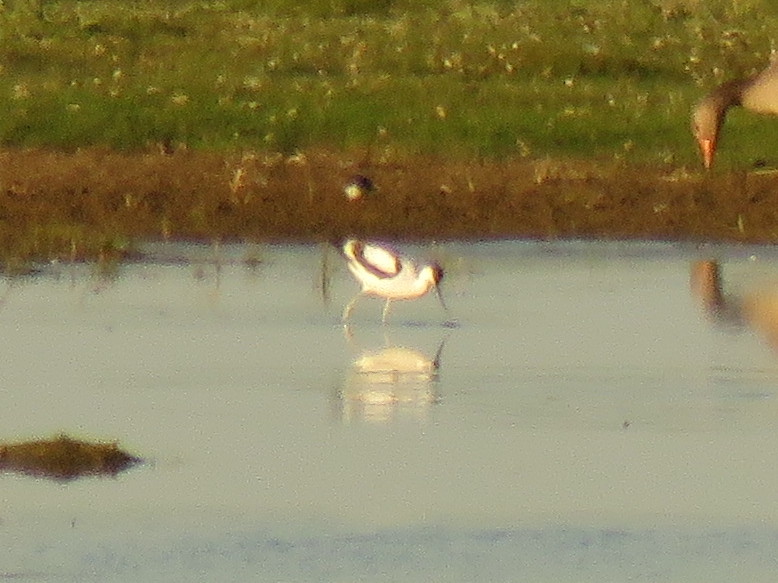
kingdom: Animalia
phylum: Chordata
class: Aves
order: Charadriiformes
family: Recurvirostridae
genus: Recurvirostra
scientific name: Recurvirostra avosetta
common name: Pied avocet
